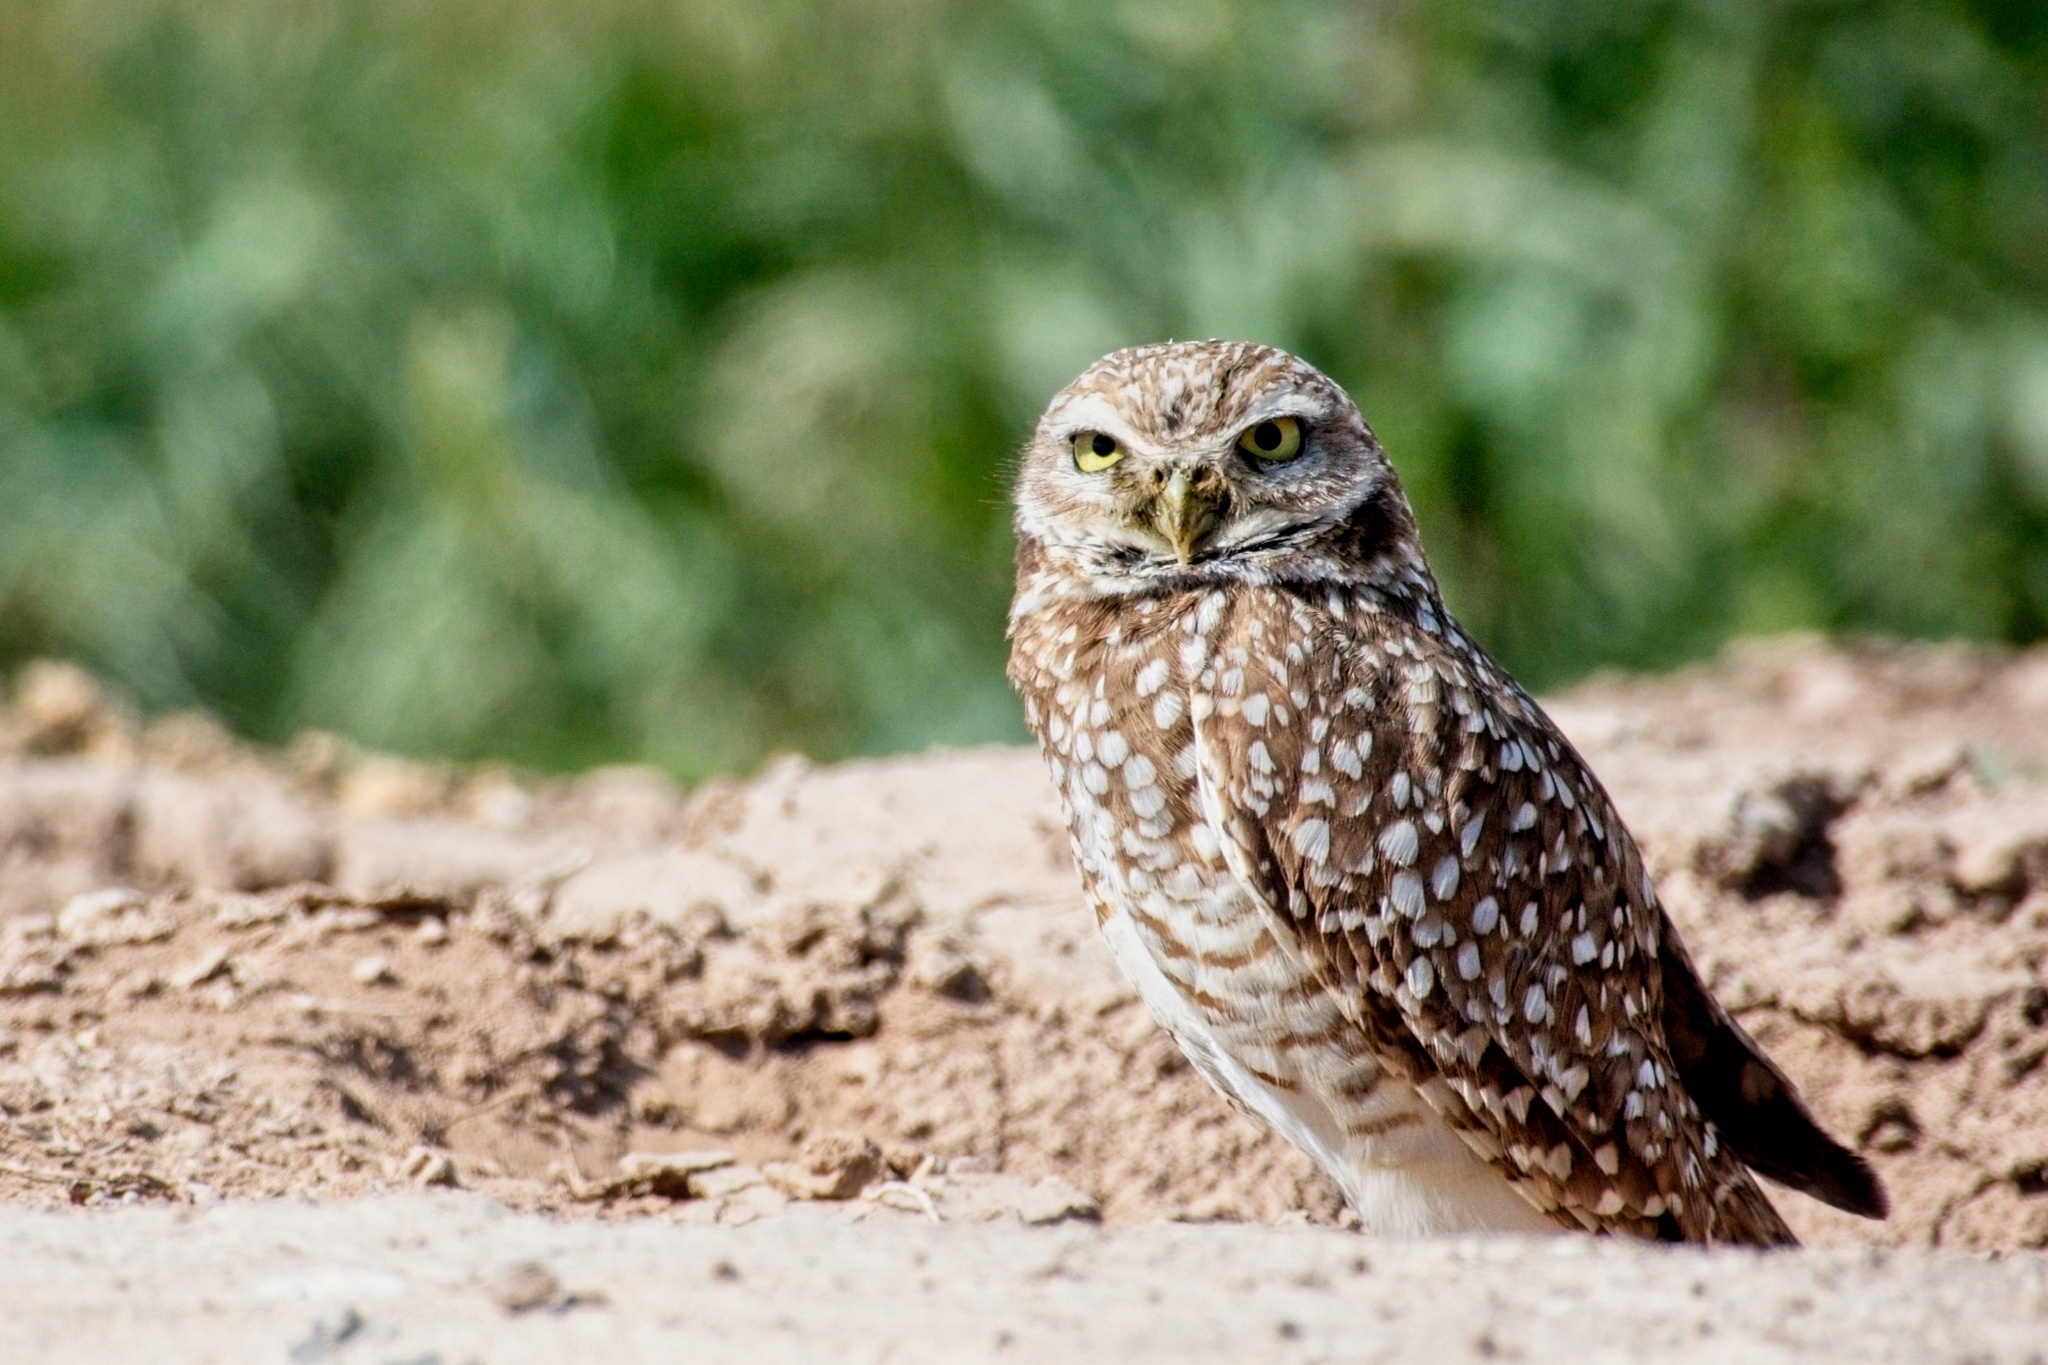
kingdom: Animalia
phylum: Chordata
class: Aves
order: Strigiformes
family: Strigidae
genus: Athene
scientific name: Athene cunicularia
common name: Burrowing owl
